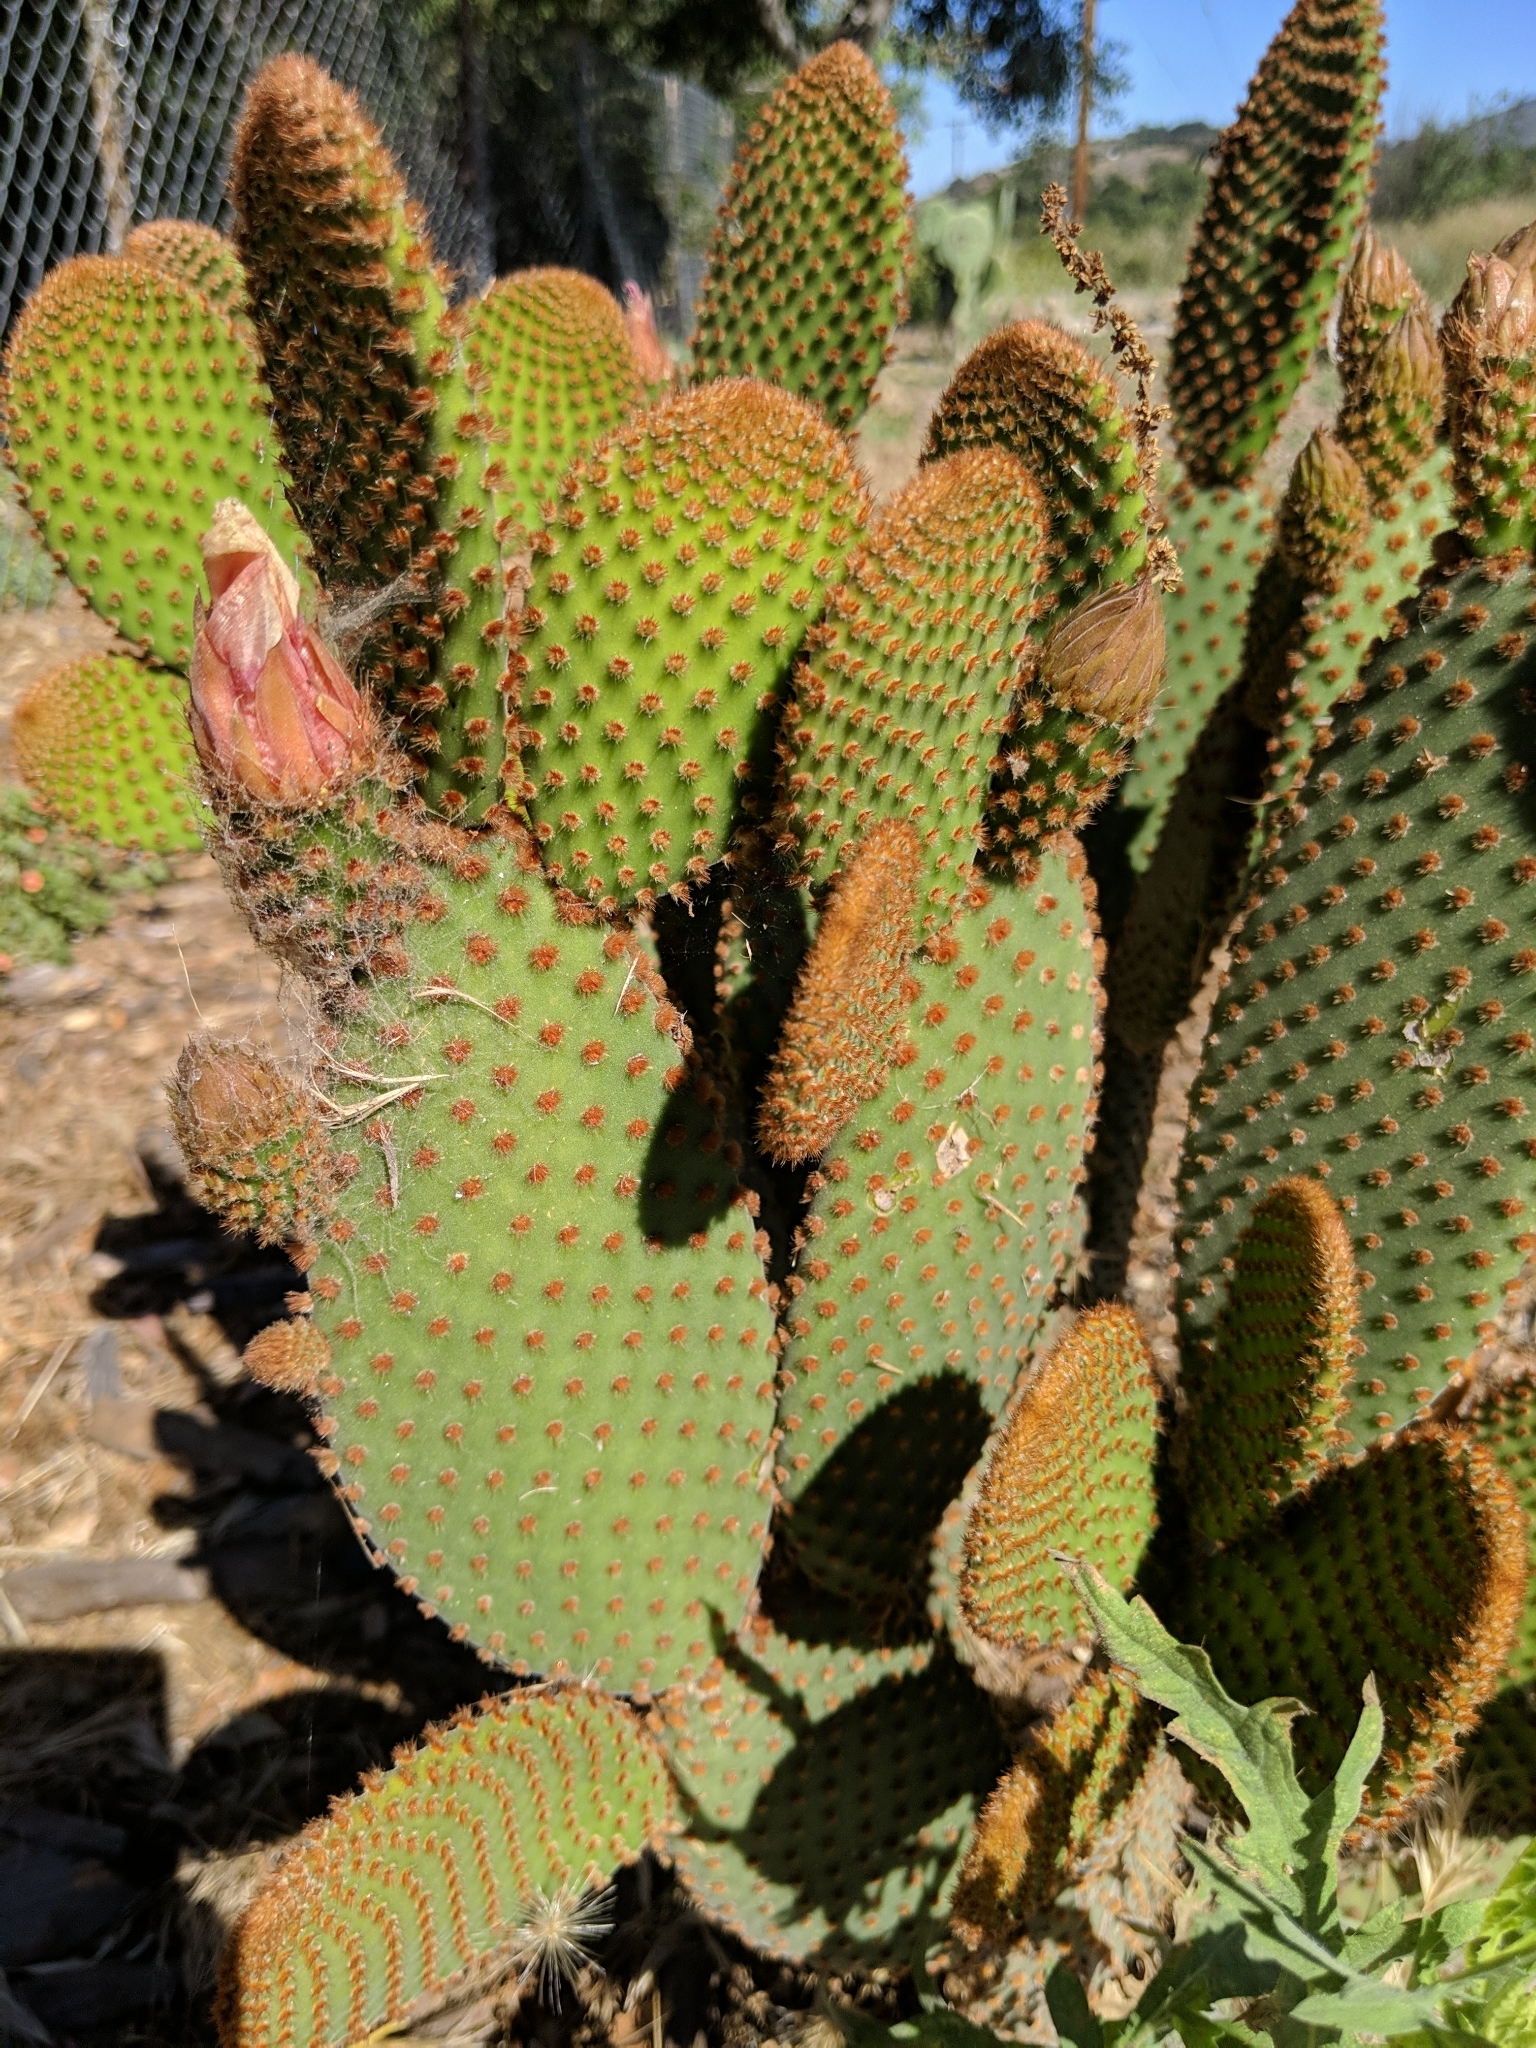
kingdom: Plantae
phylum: Tracheophyta
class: Magnoliopsida
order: Caryophyllales
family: Cactaceae
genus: Opuntia
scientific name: Opuntia microdasys
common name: Angel's-wings
